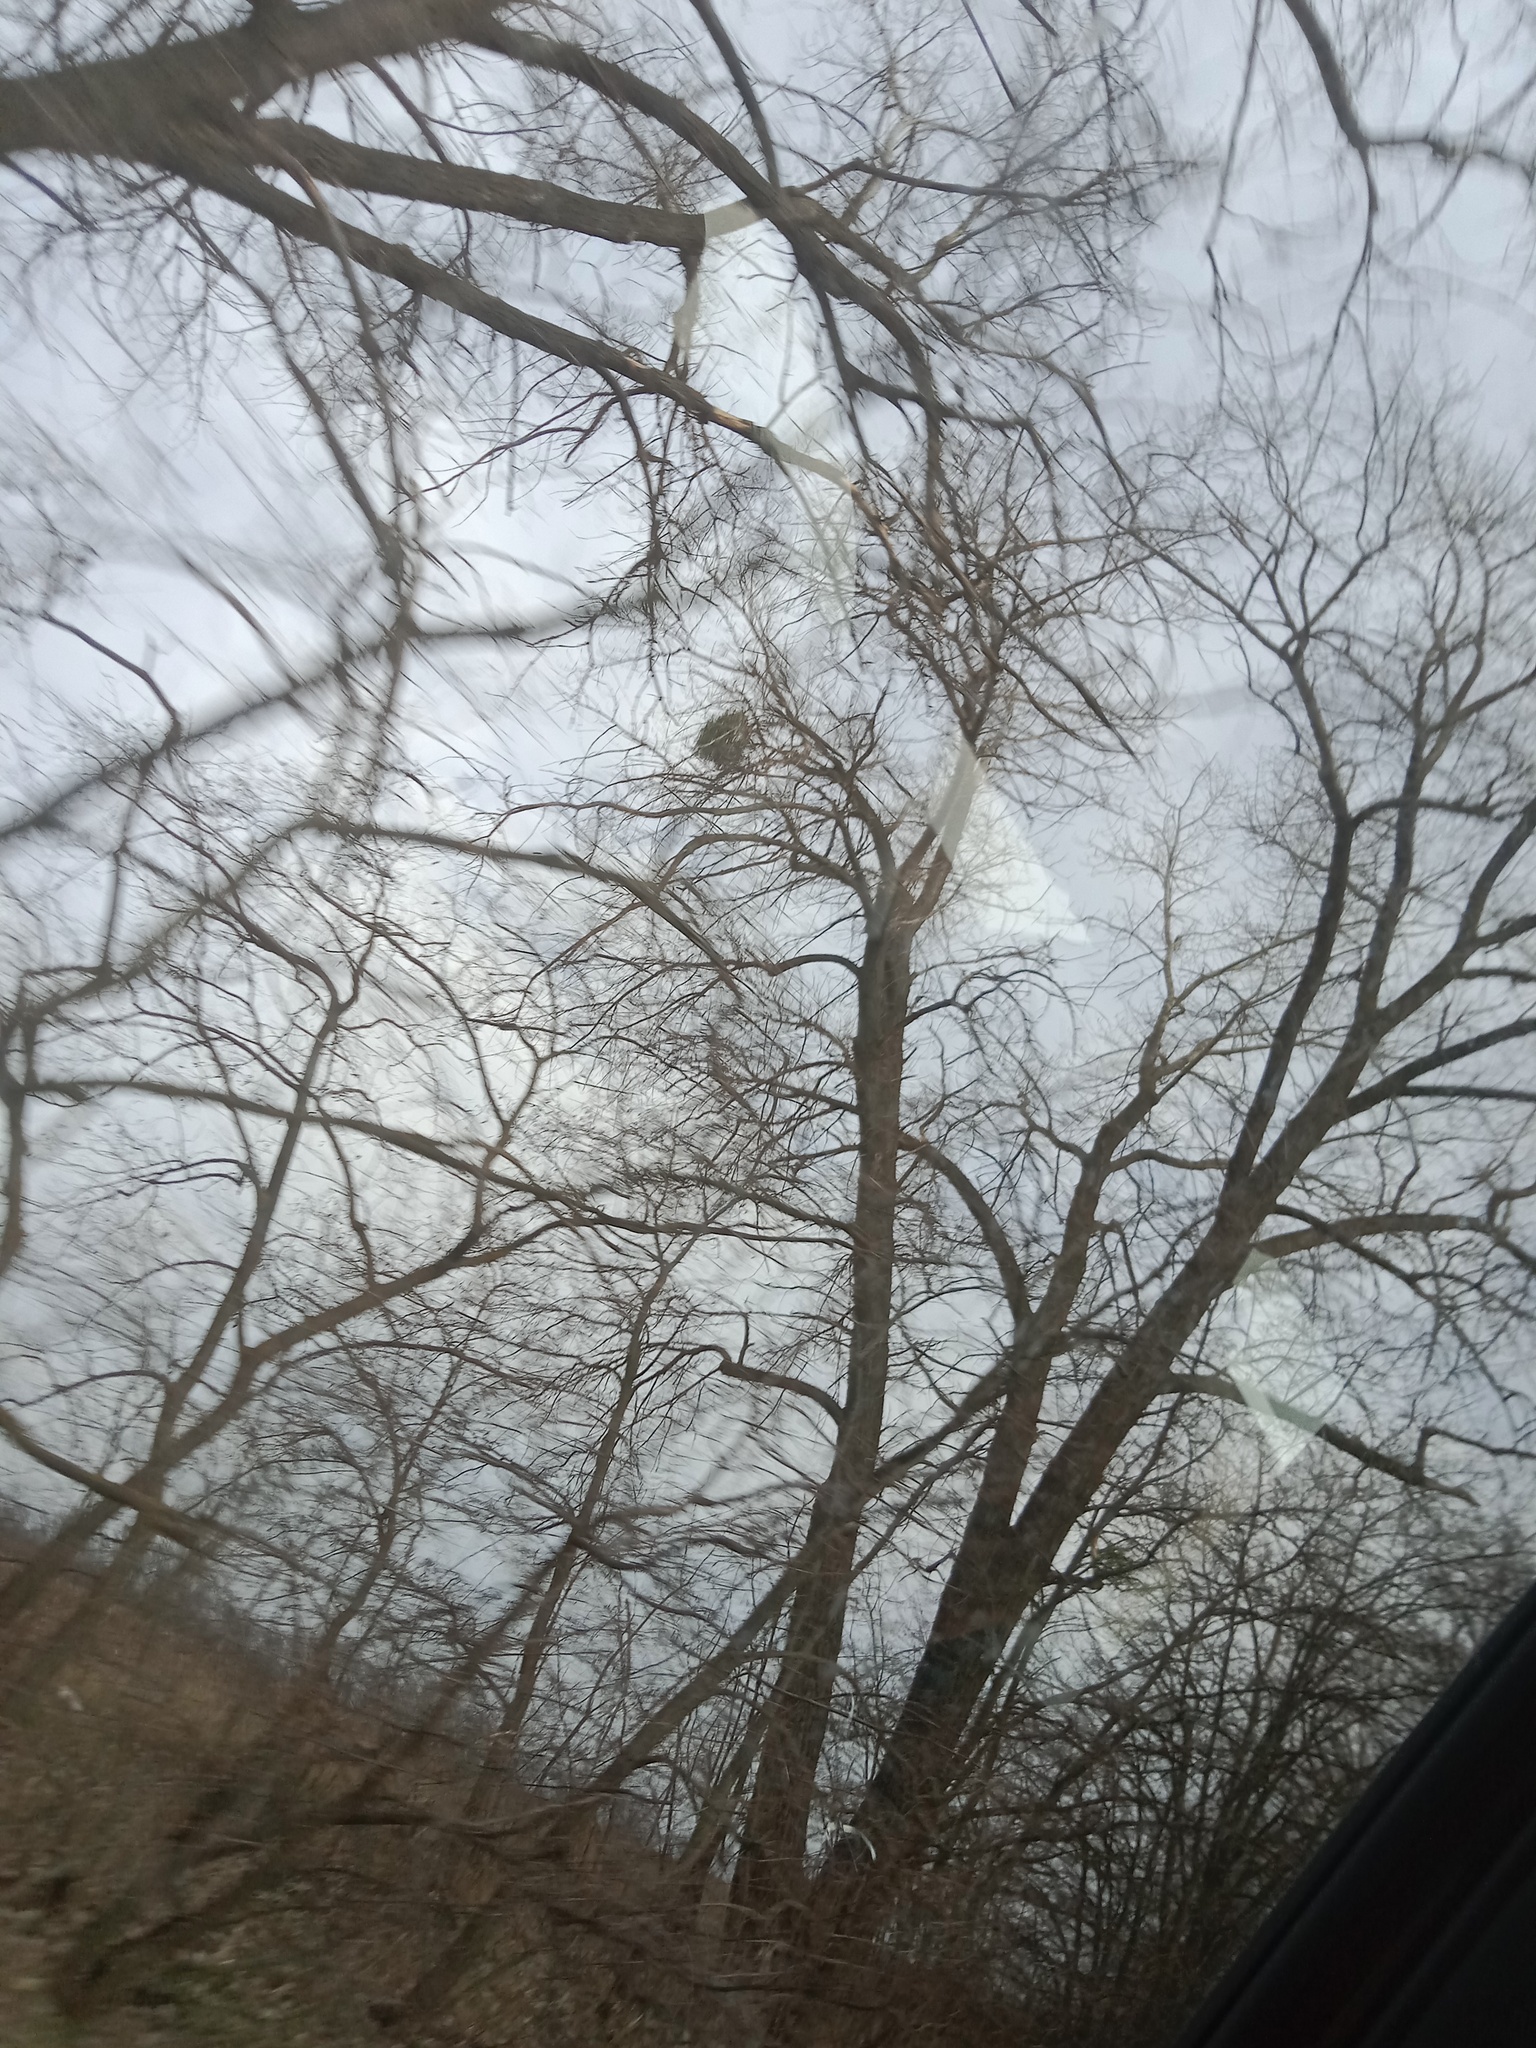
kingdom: Plantae
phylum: Tracheophyta
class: Magnoliopsida
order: Santalales
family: Viscaceae
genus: Viscum
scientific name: Viscum album
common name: Mistletoe
